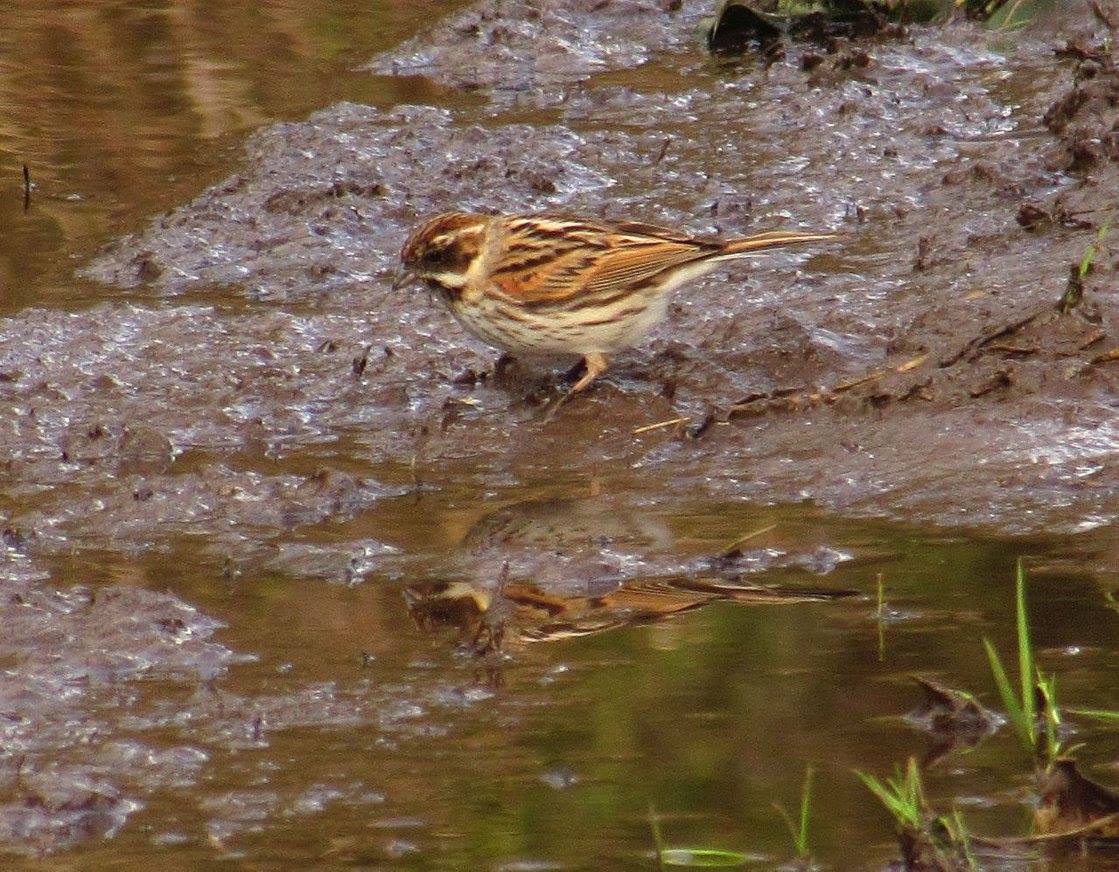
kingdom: Animalia
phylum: Chordata
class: Aves
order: Passeriformes
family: Emberizidae
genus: Emberiza
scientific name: Emberiza schoeniclus
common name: Reed bunting
